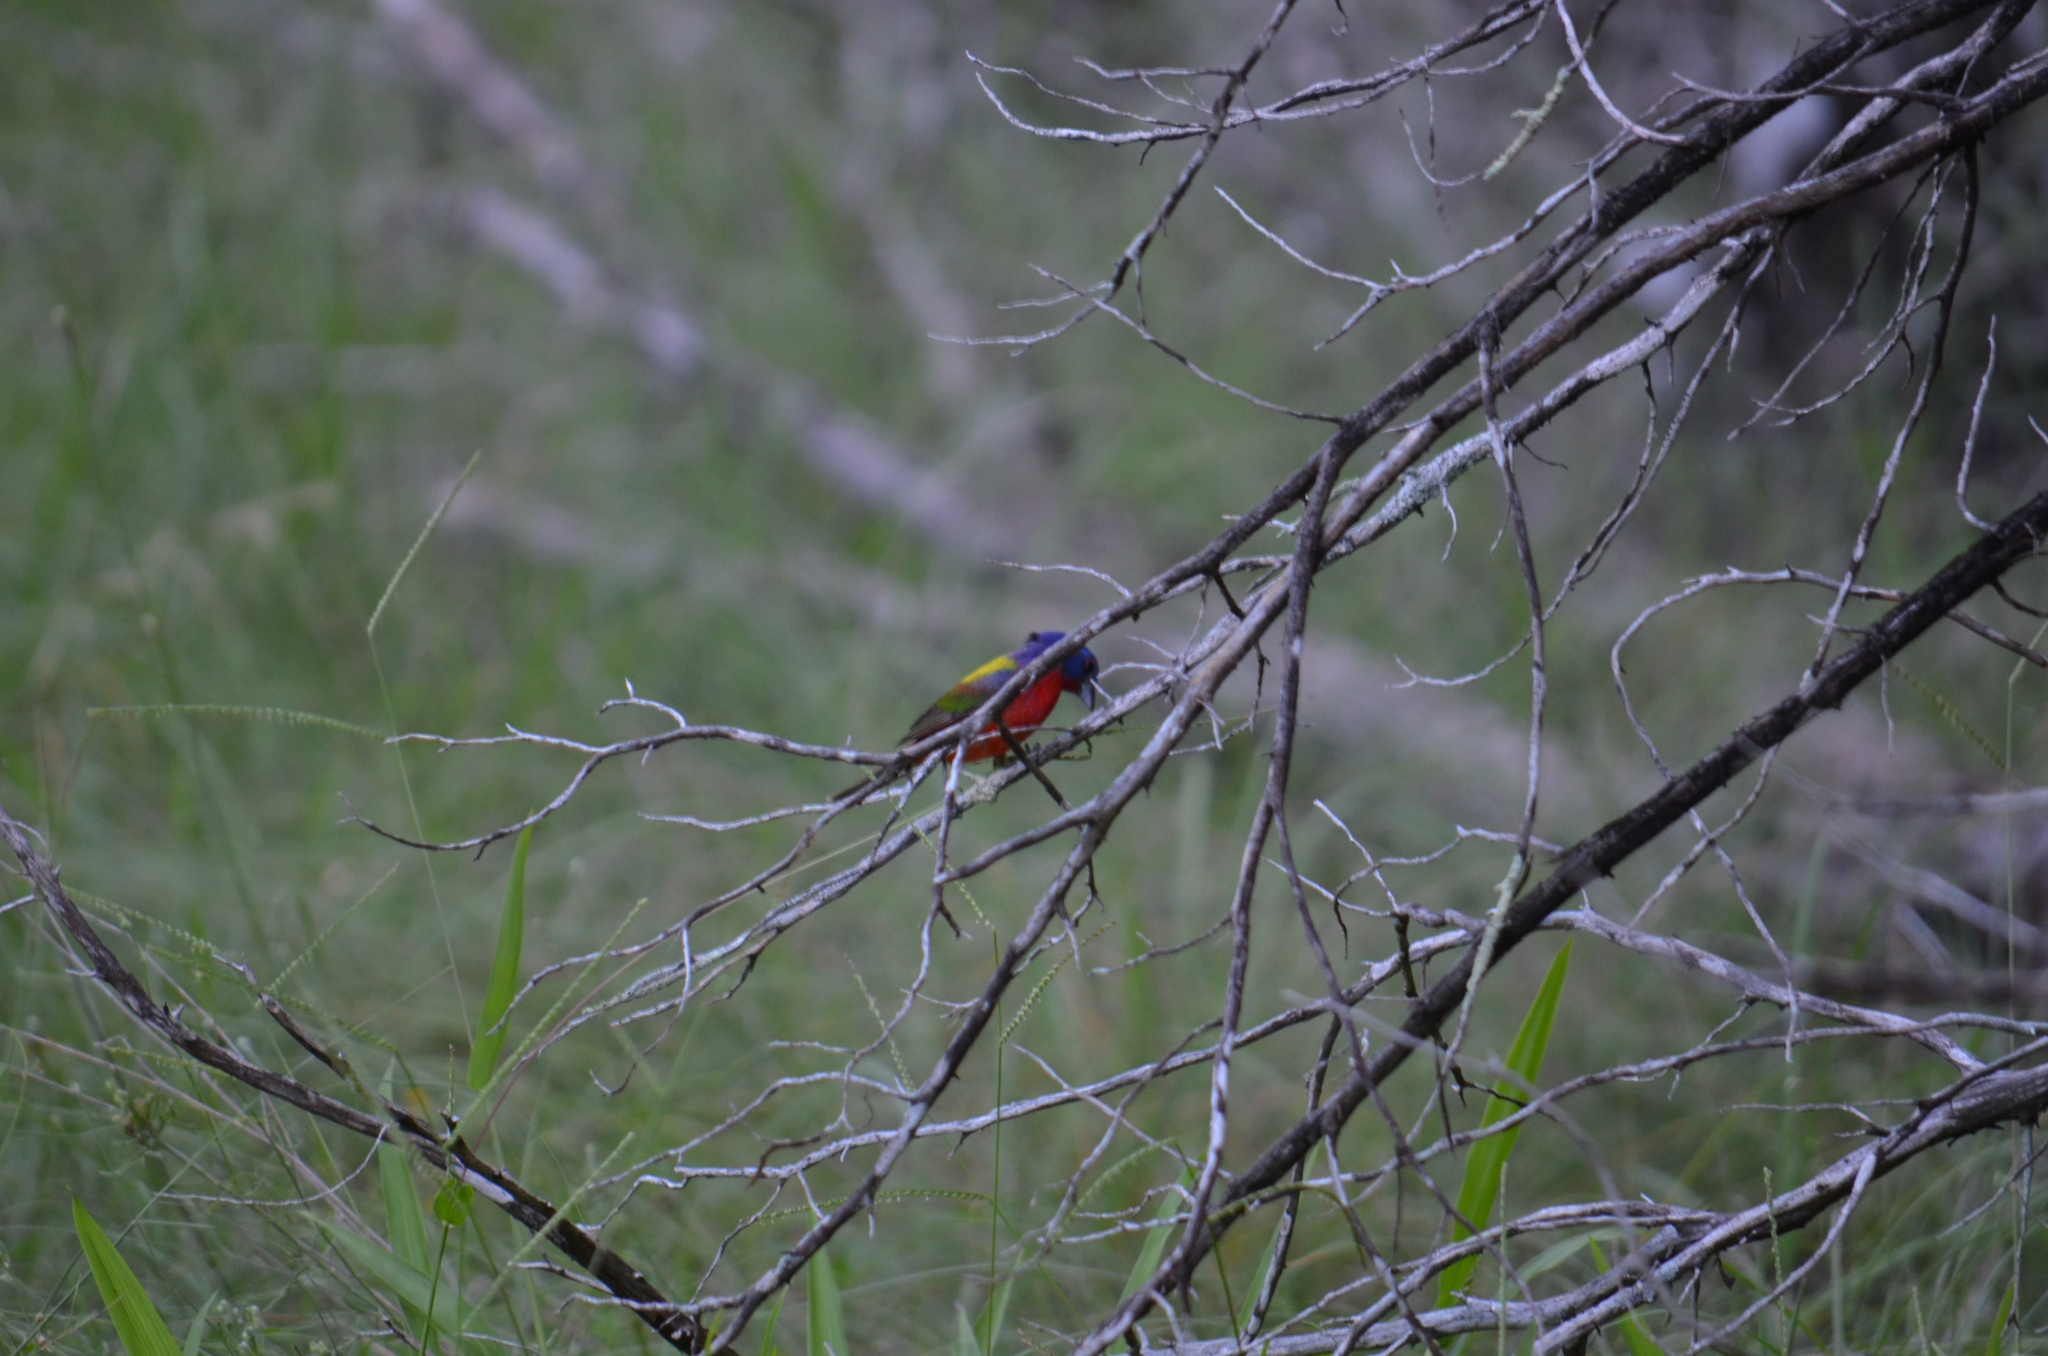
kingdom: Animalia
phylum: Chordata
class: Aves
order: Passeriformes
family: Cardinalidae
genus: Passerina
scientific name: Passerina ciris
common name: Painted bunting
